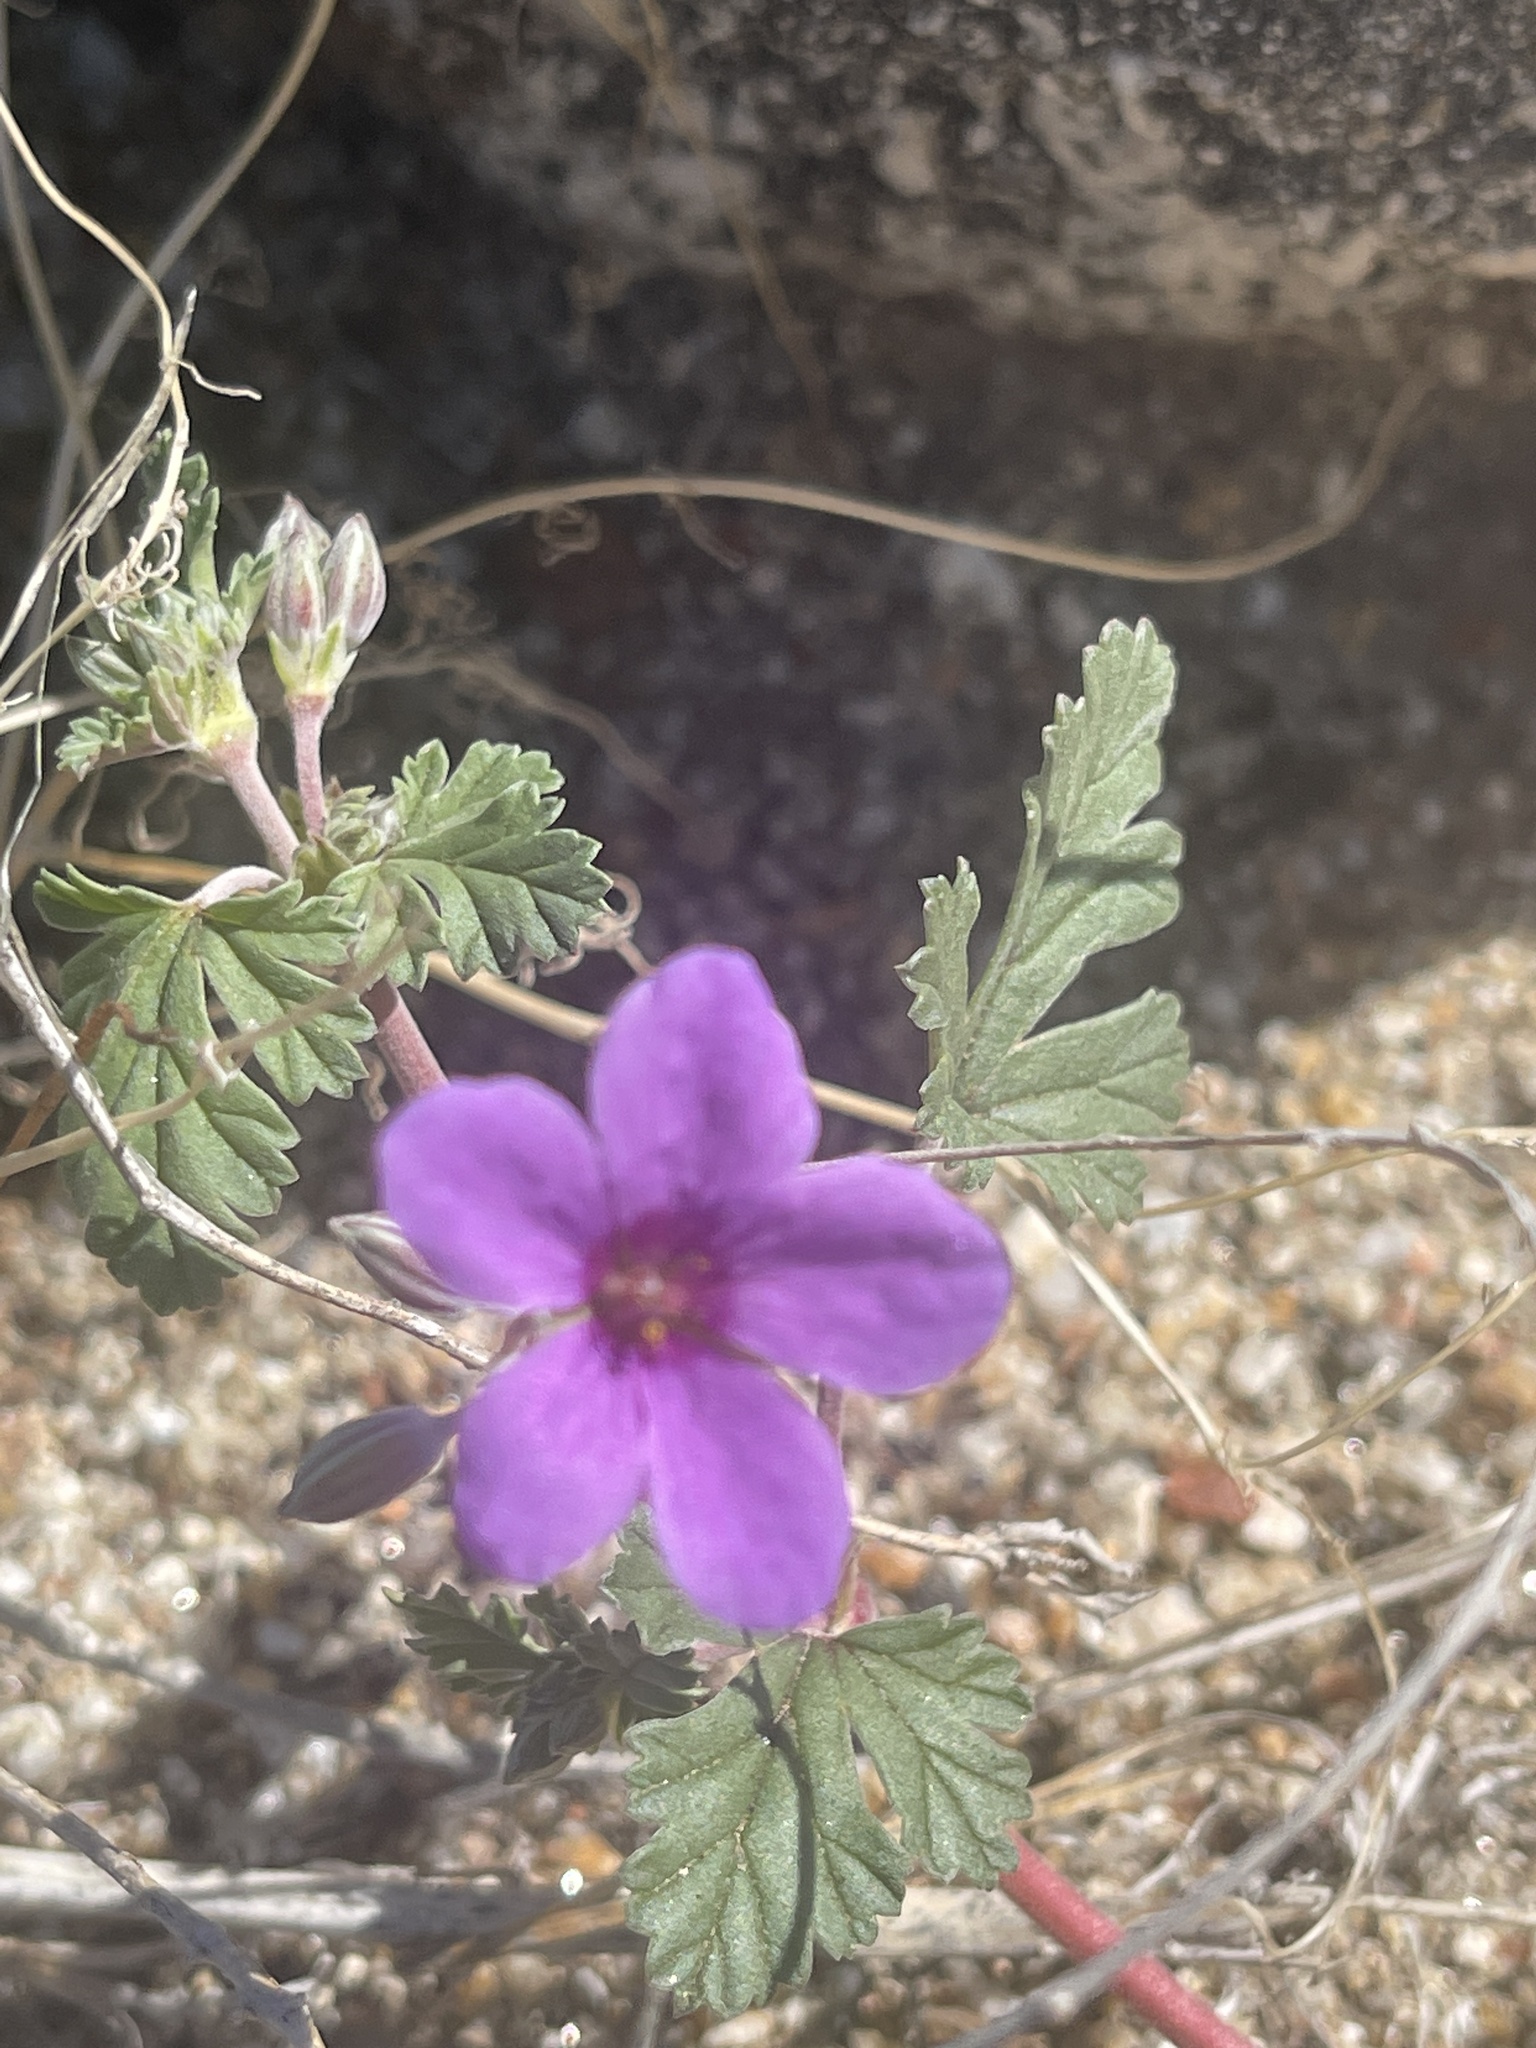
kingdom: Plantae
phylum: Tracheophyta
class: Magnoliopsida
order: Geraniales
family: Geraniaceae
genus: Erodium
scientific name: Erodium texanum
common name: Texas stork's-bill
